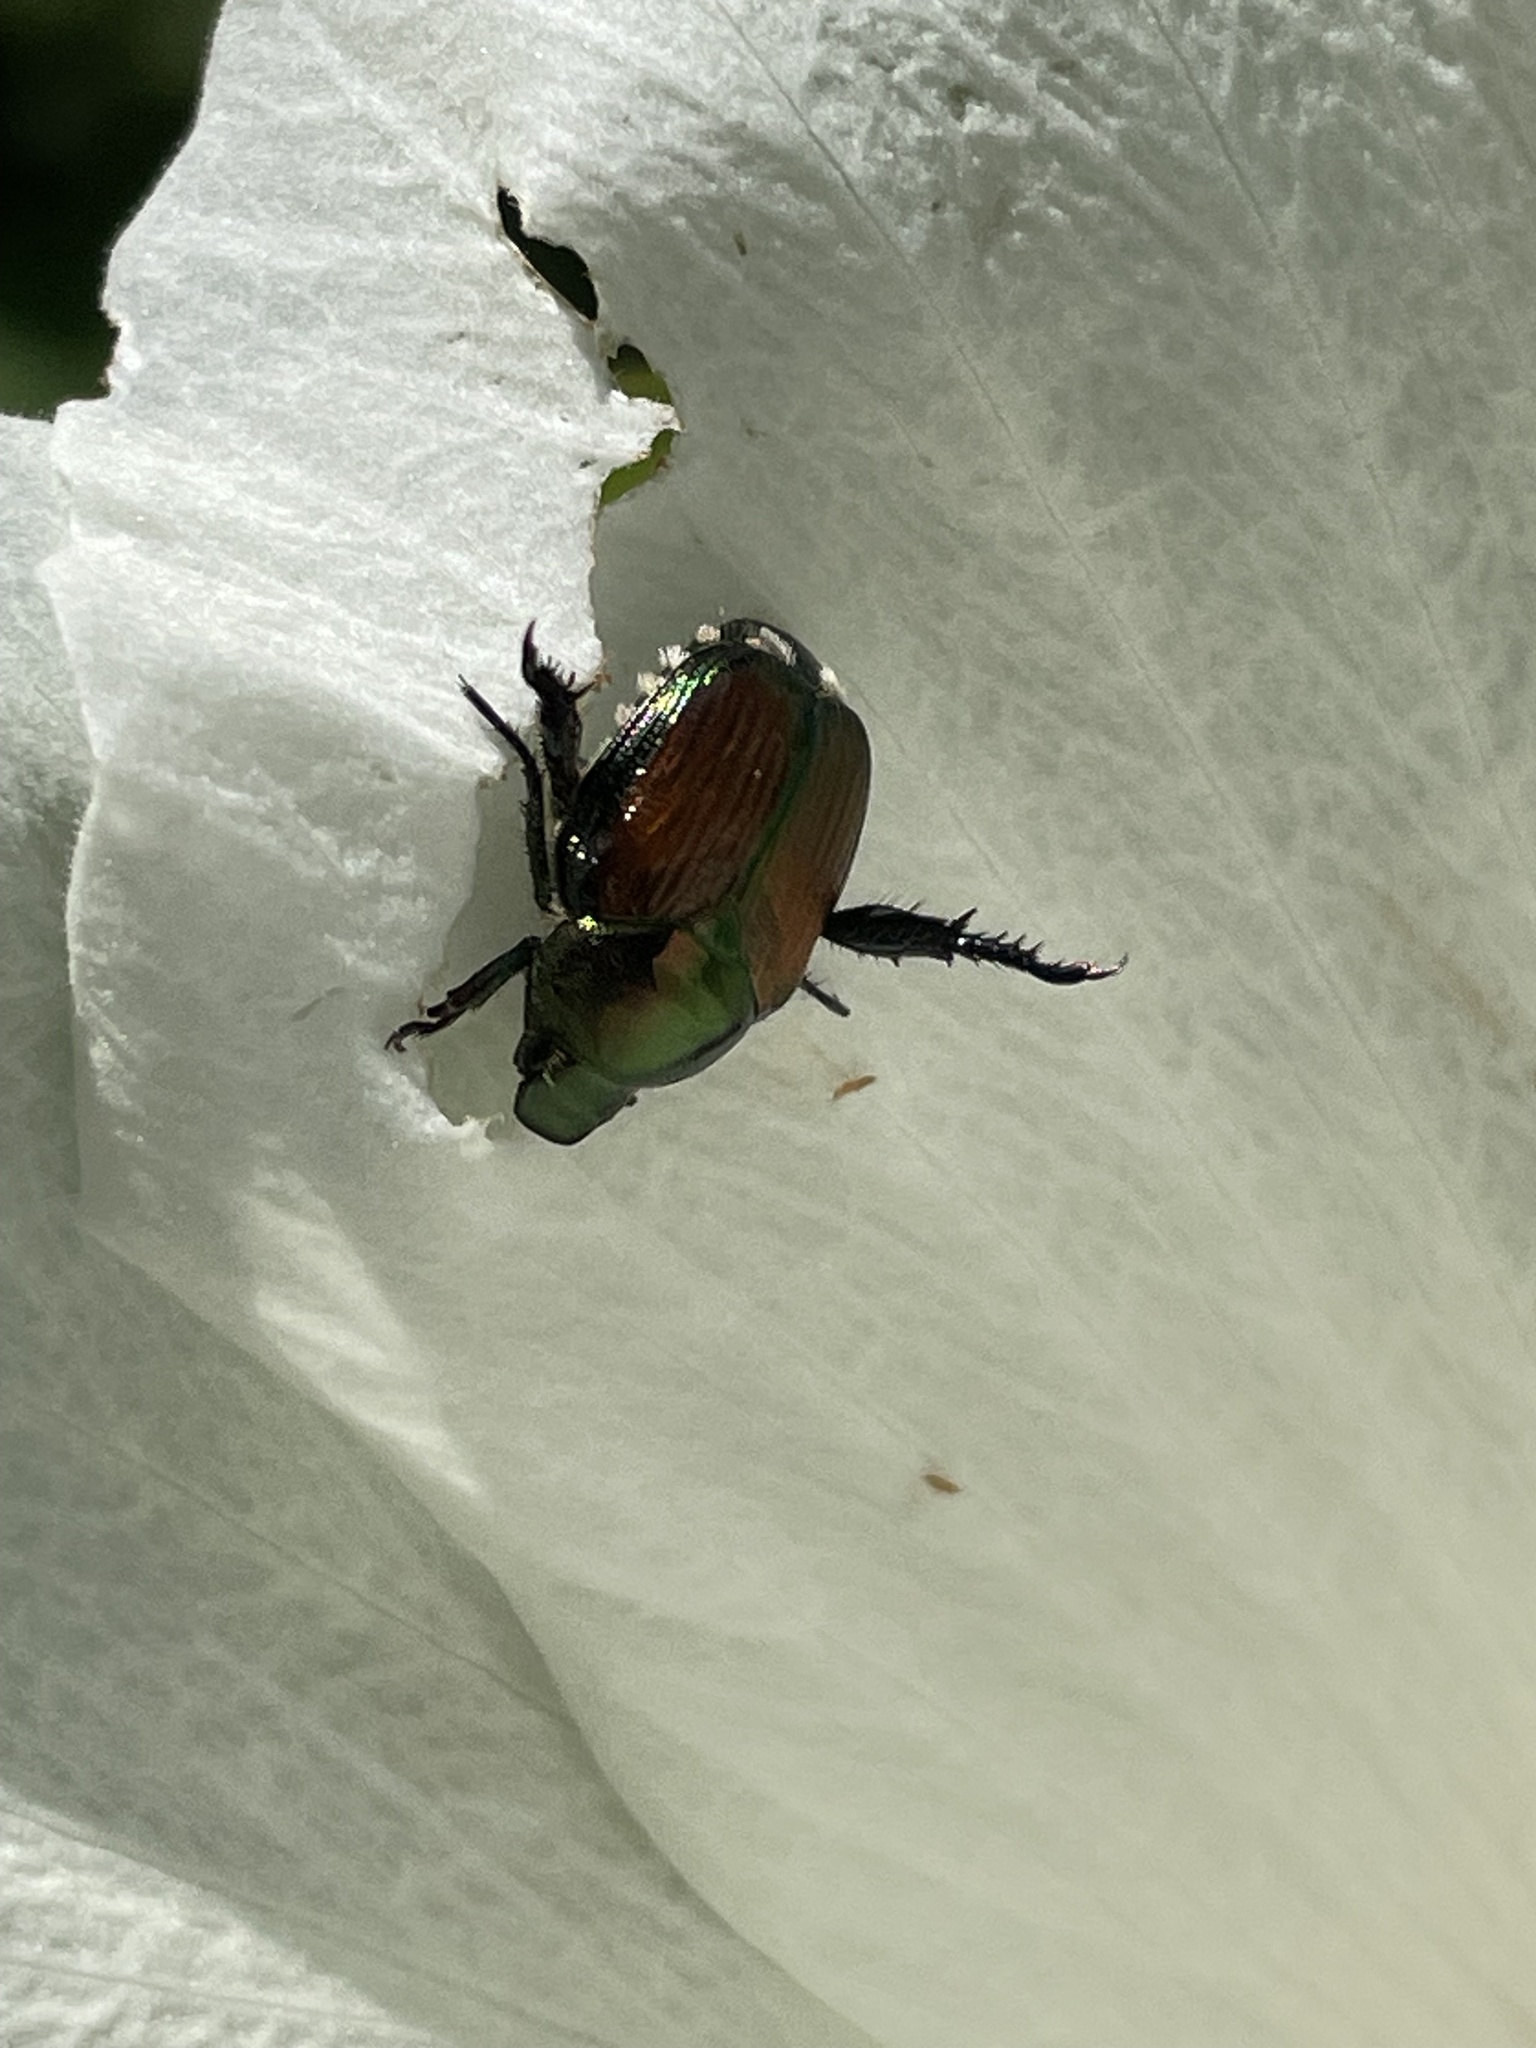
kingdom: Animalia
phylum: Arthropoda
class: Insecta
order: Coleoptera
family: Scarabaeidae
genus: Popillia
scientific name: Popillia japonica
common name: Japanese beetle
